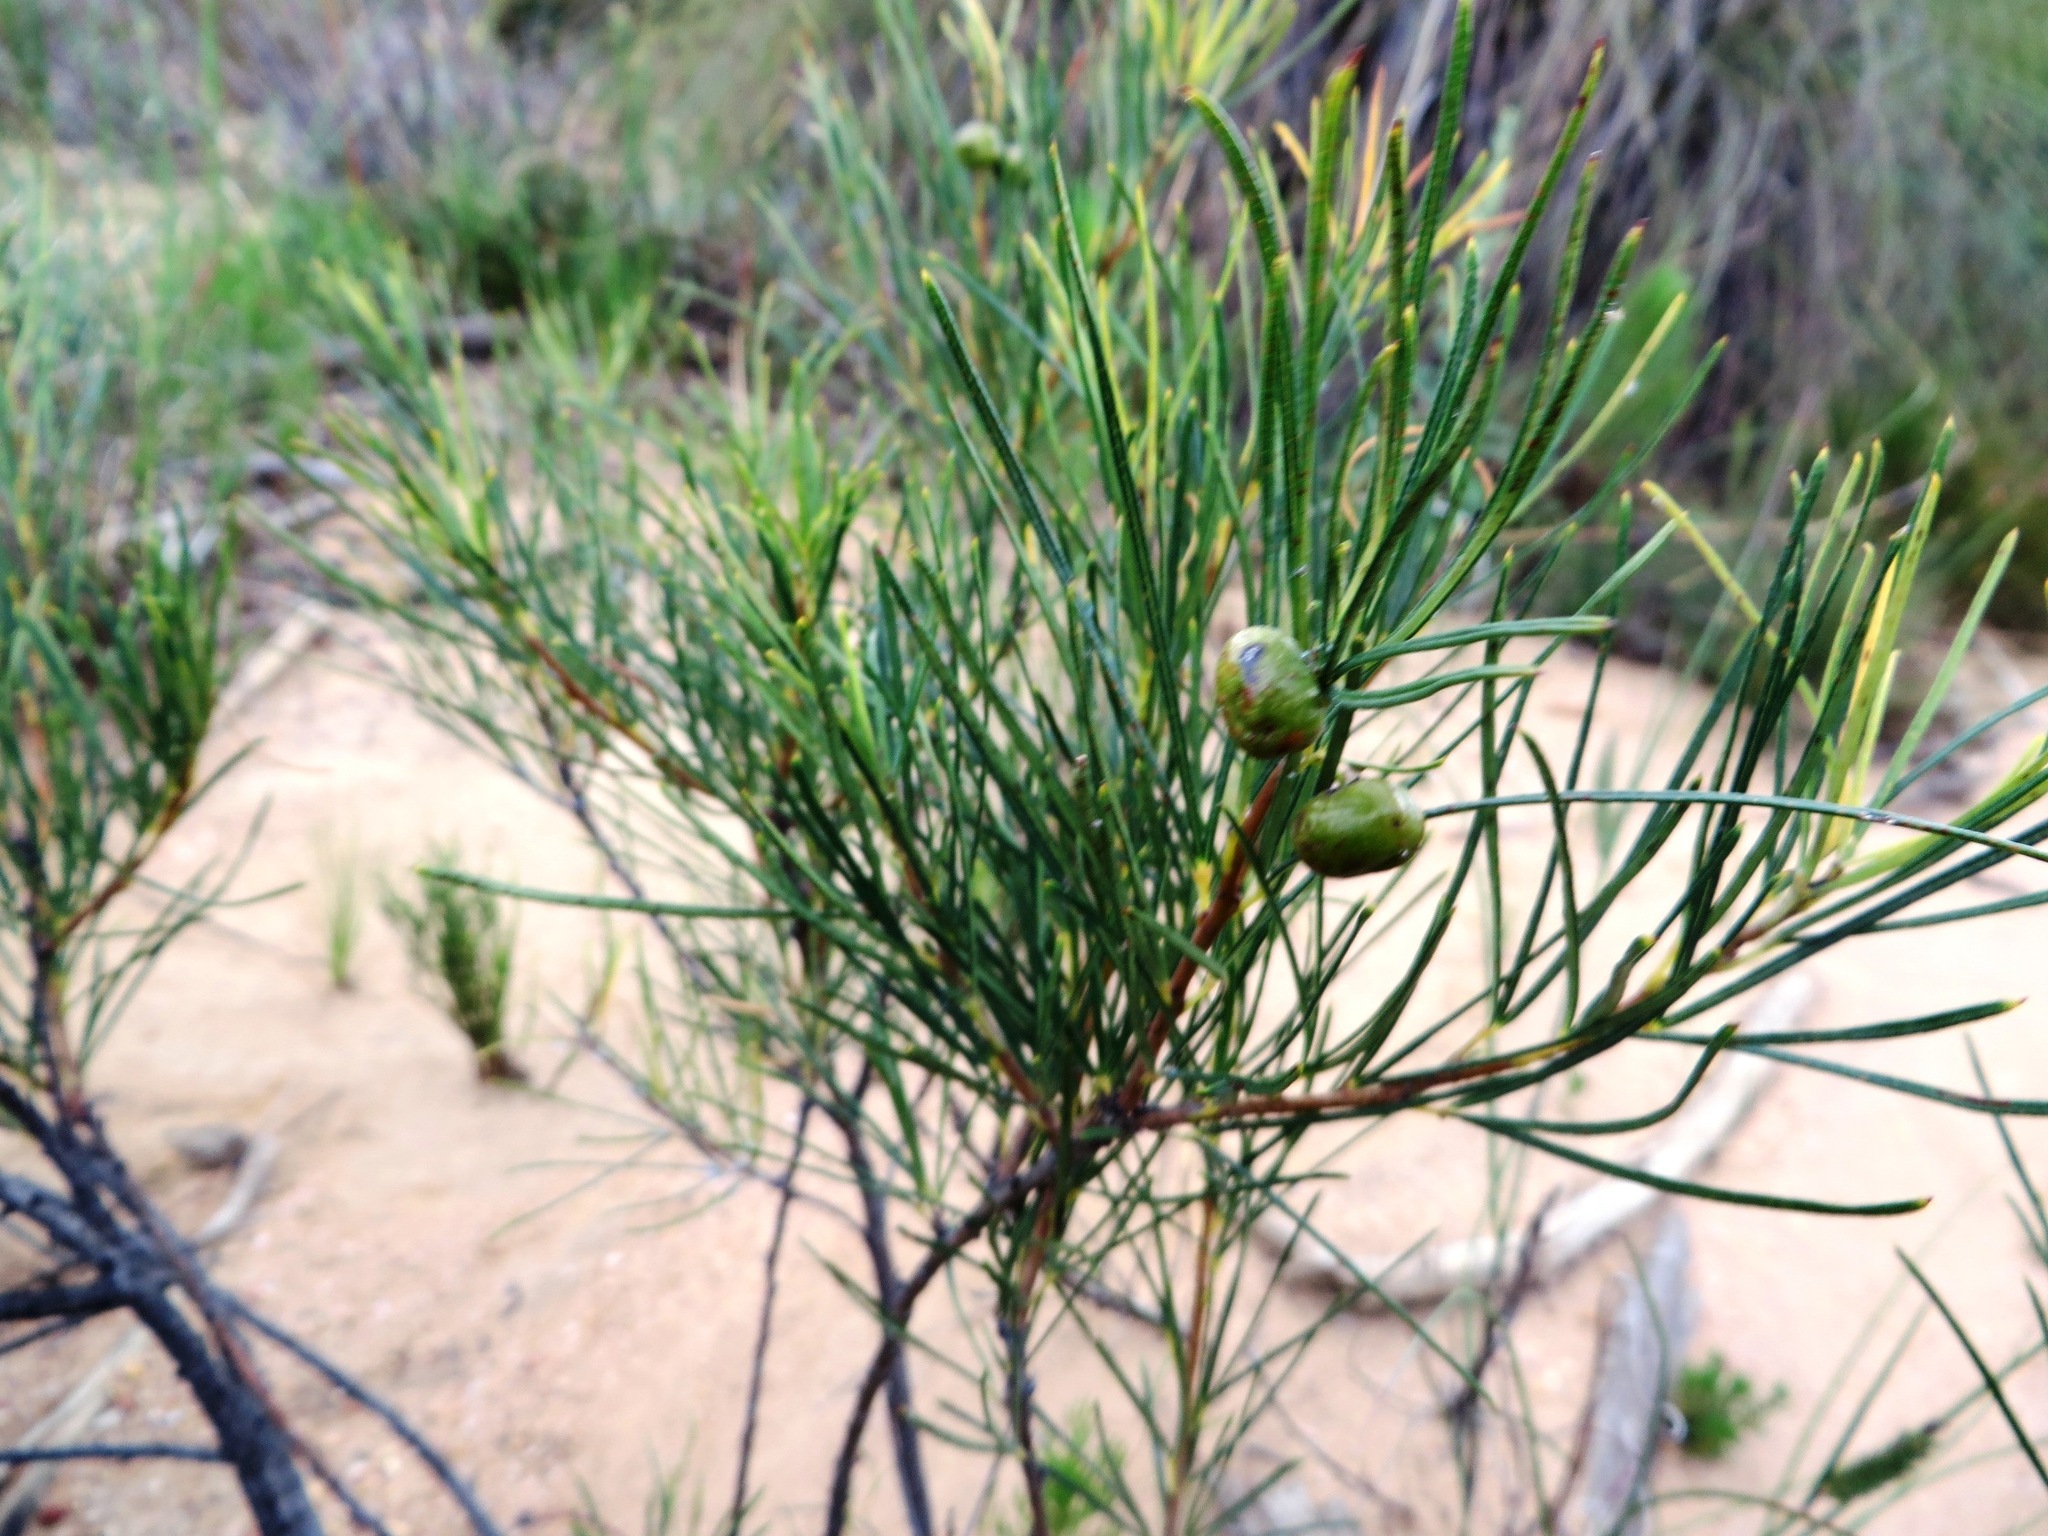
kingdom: Plantae
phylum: Tracheophyta
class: Magnoliopsida
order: Sapindales
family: Anacardiaceae
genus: Searsia
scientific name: Searsia rosmarinifolia
